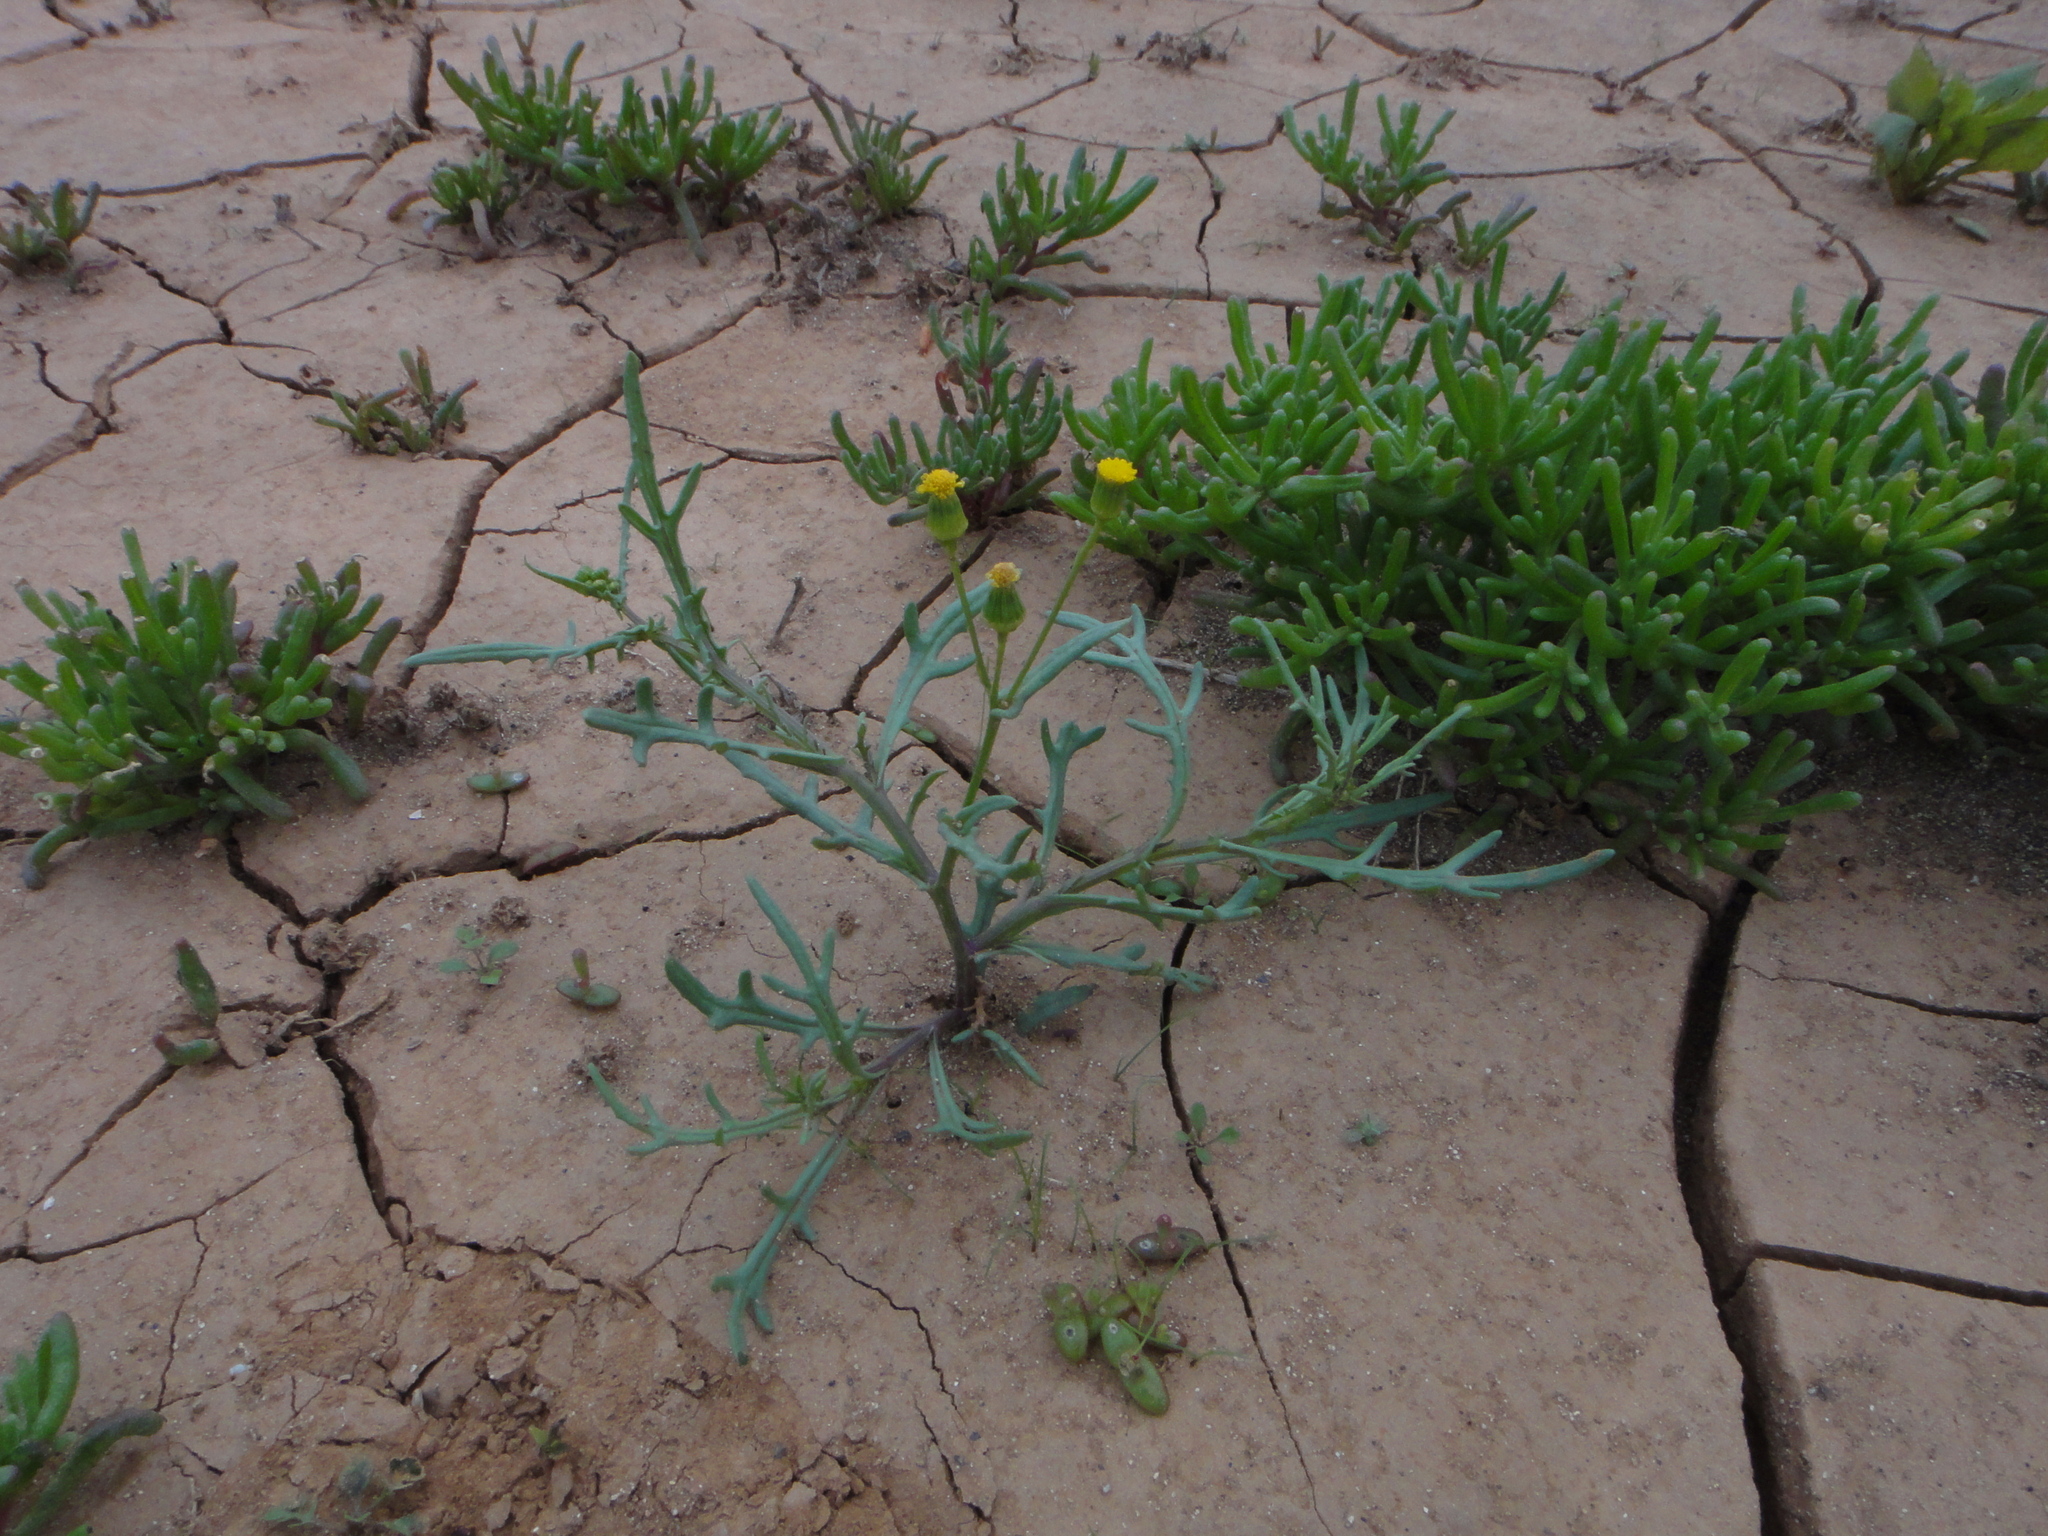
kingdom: Plantae
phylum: Tracheophyta
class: Magnoliopsida
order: Asterales
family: Asteraceae
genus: Senecio
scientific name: Senecio glaucus
